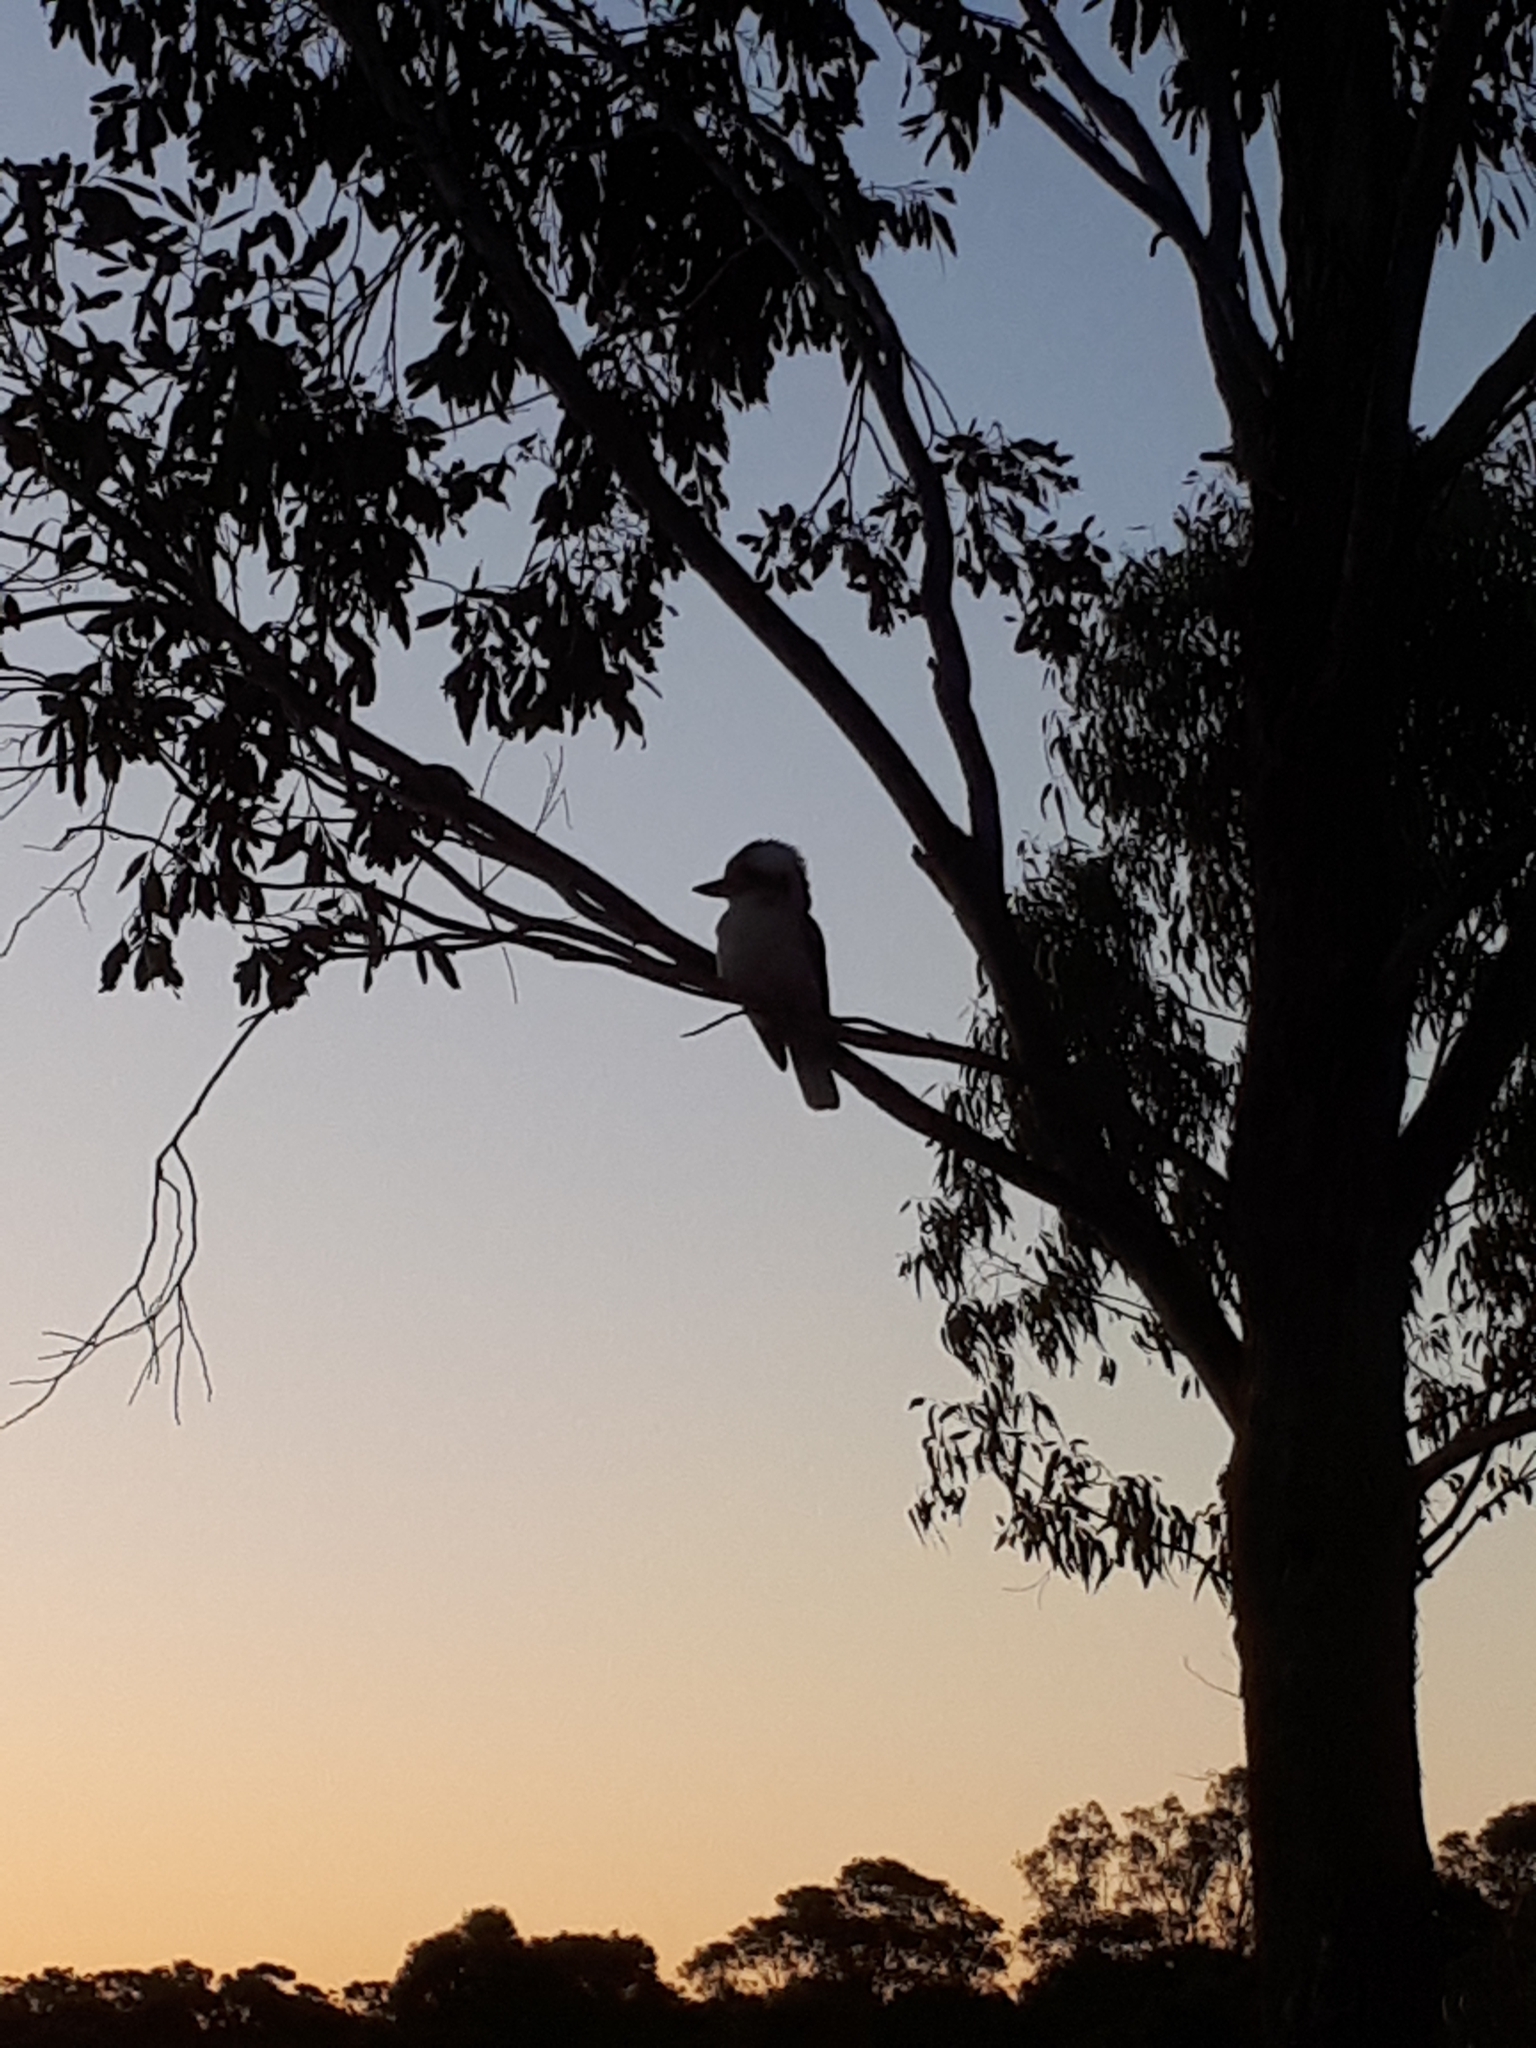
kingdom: Animalia
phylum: Chordata
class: Aves
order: Coraciiformes
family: Alcedinidae
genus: Dacelo
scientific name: Dacelo novaeguineae
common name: Laughing kookaburra
